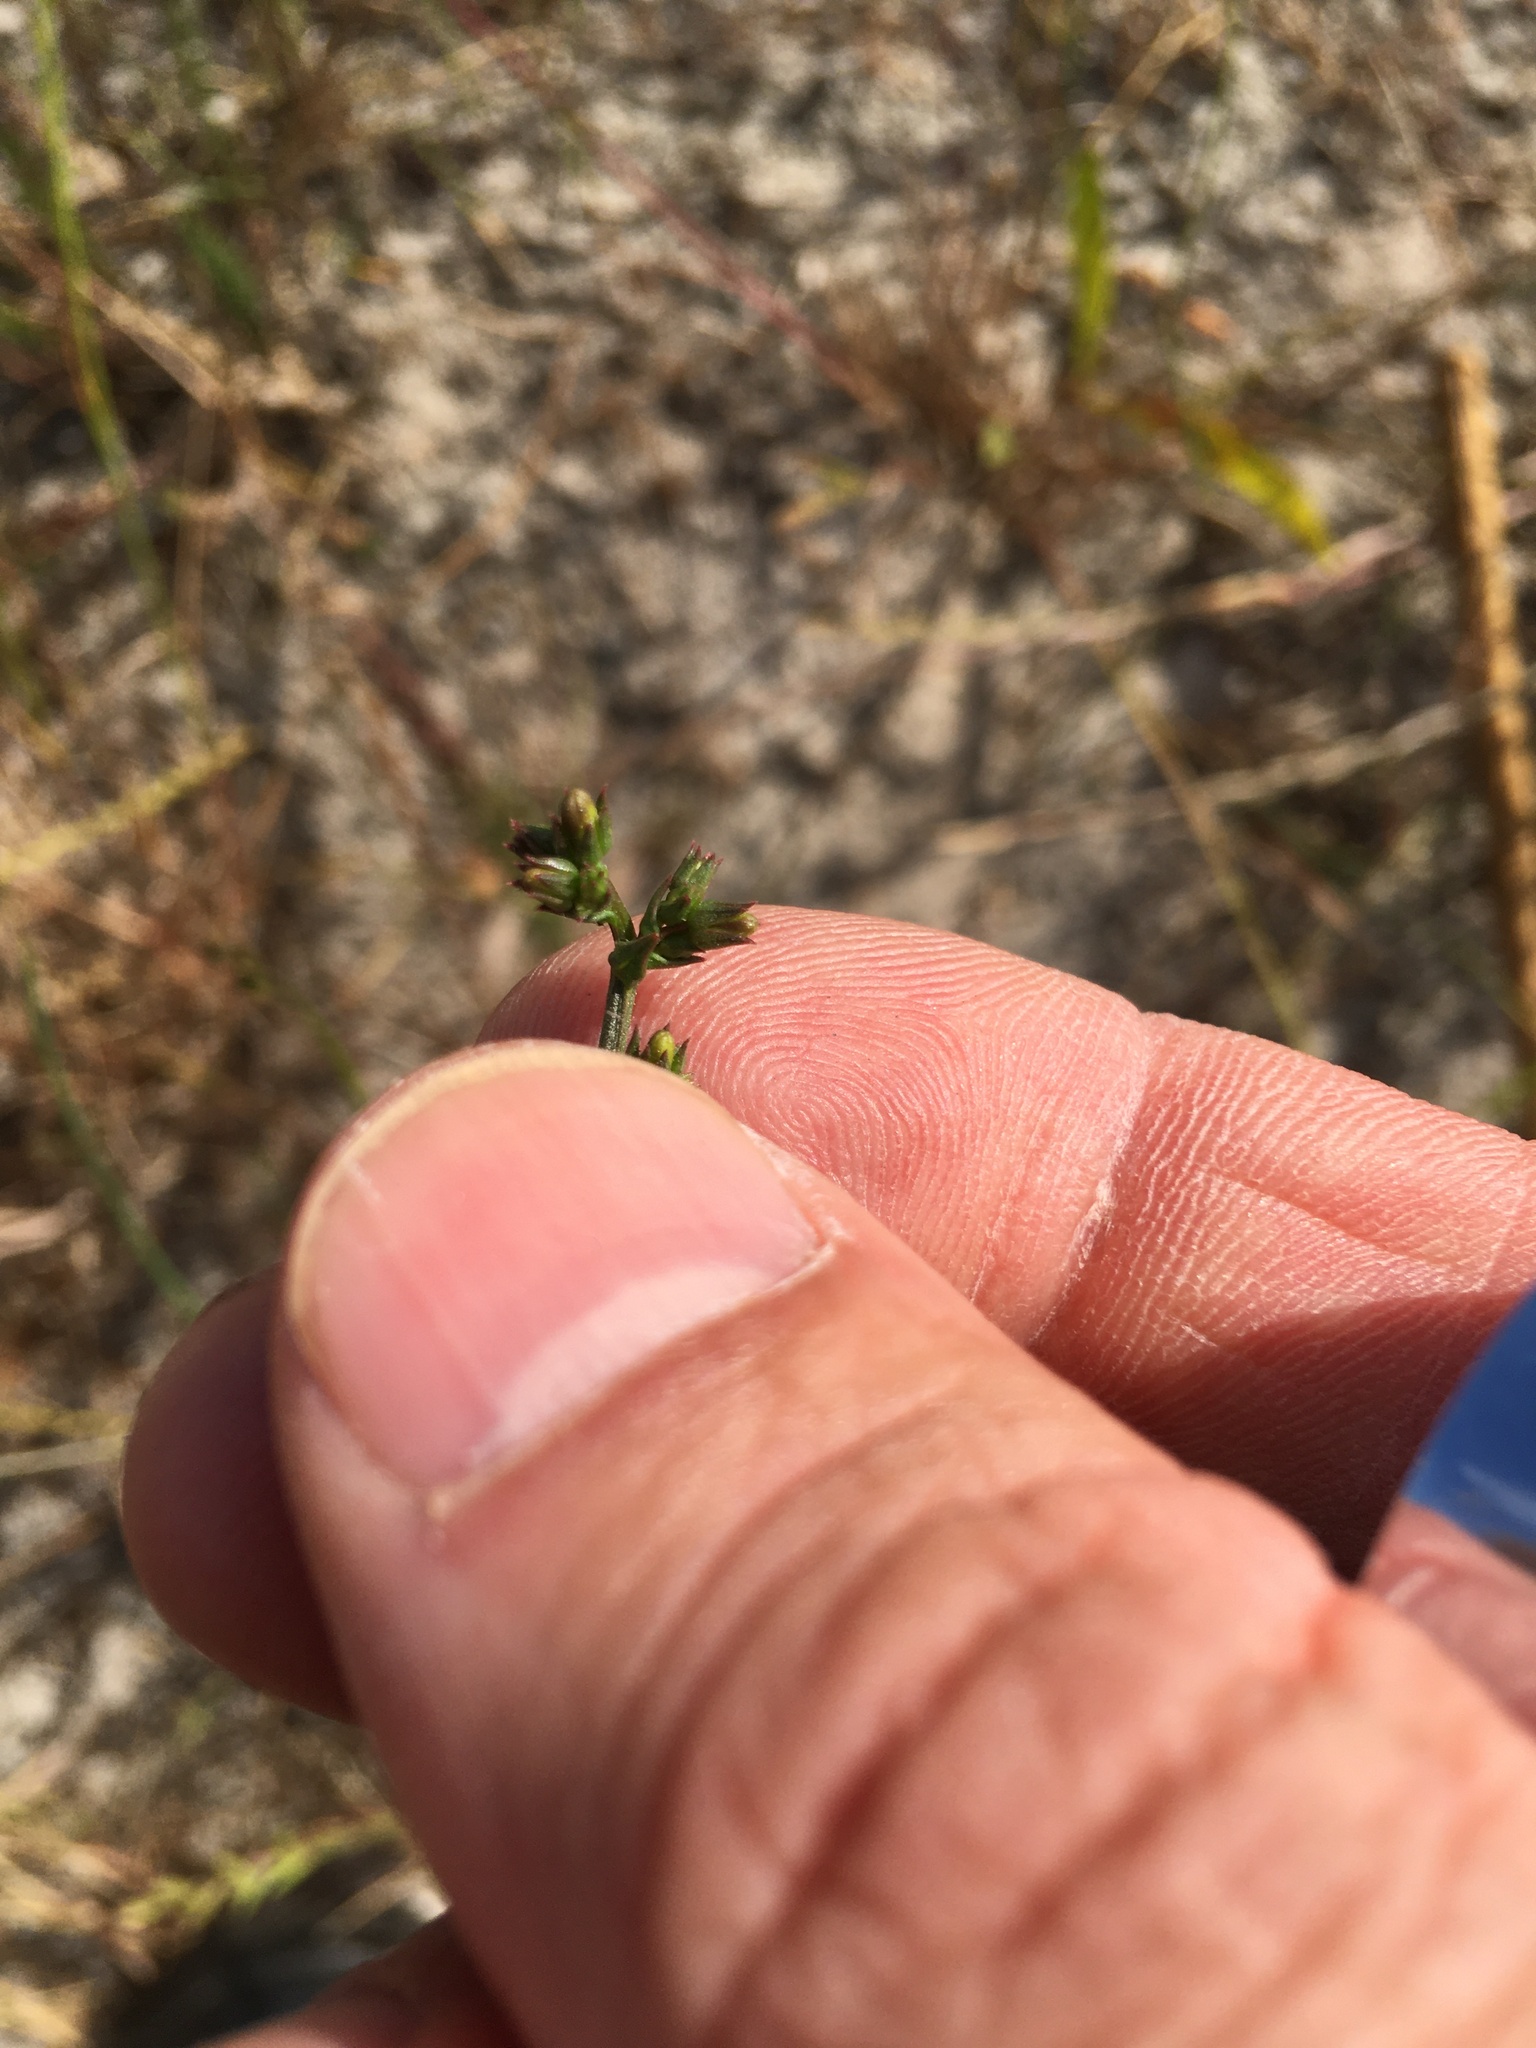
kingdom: Plantae
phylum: Tracheophyta
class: Magnoliopsida
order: Asterales
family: Campanulaceae
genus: Monopsis
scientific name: Monopsis lutea
